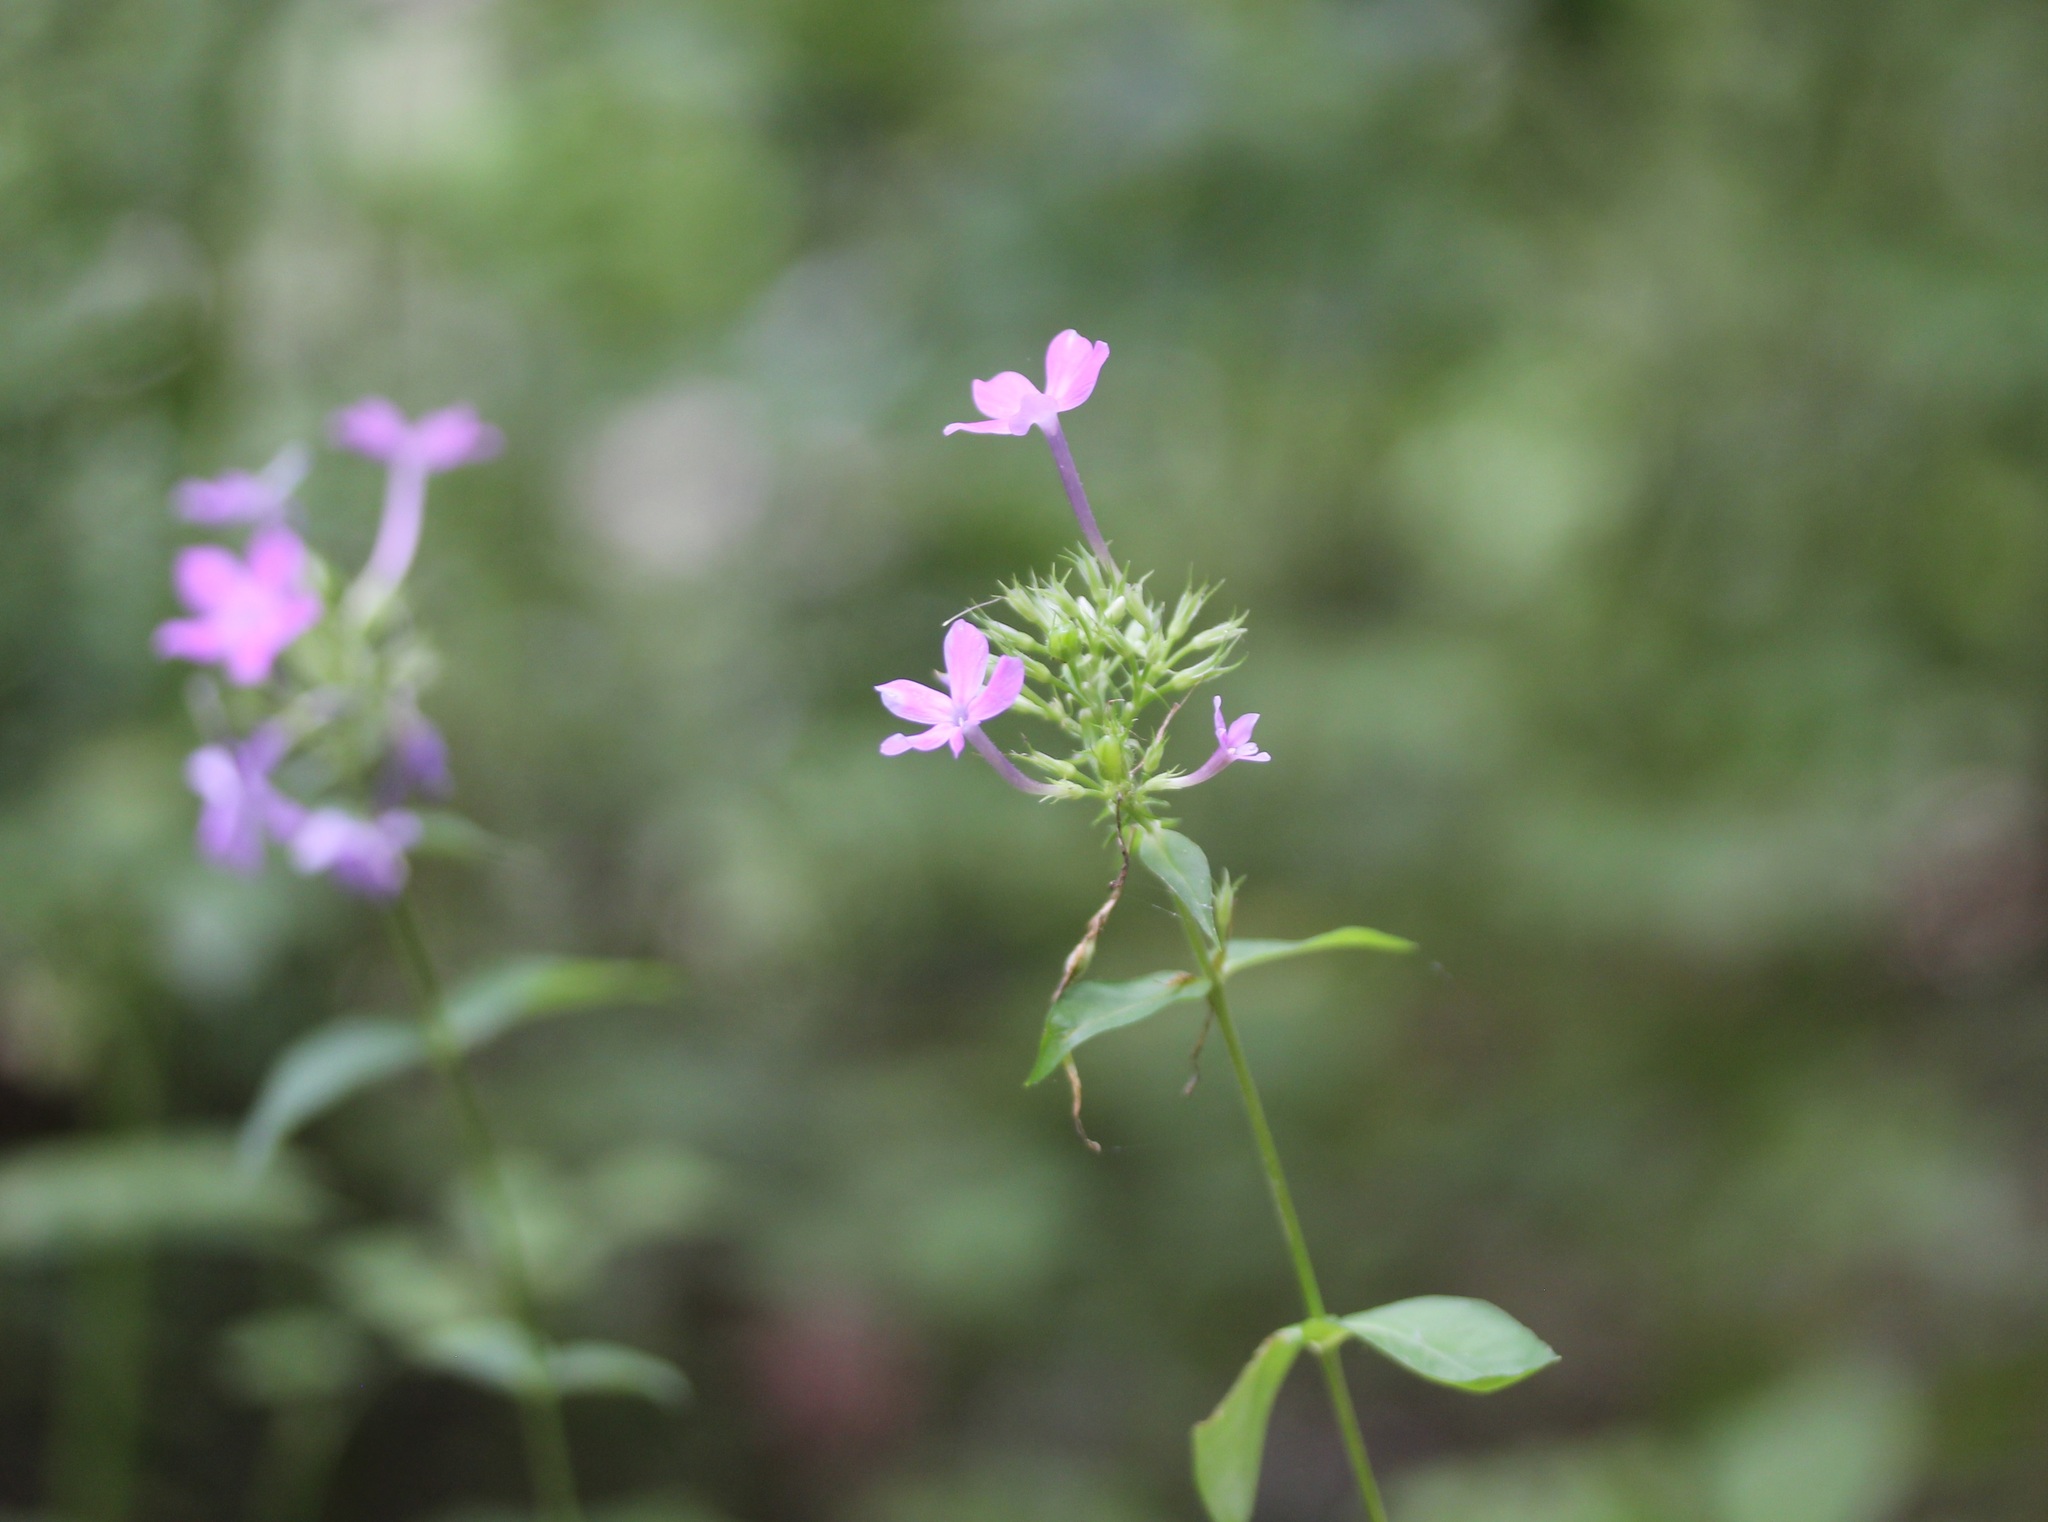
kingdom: Plantae
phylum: Tracheophyta
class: Magnoliopsida
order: Ericales
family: Polemoniaceae
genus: Phlox
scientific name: Phlox paniculata
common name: Fall phlox
